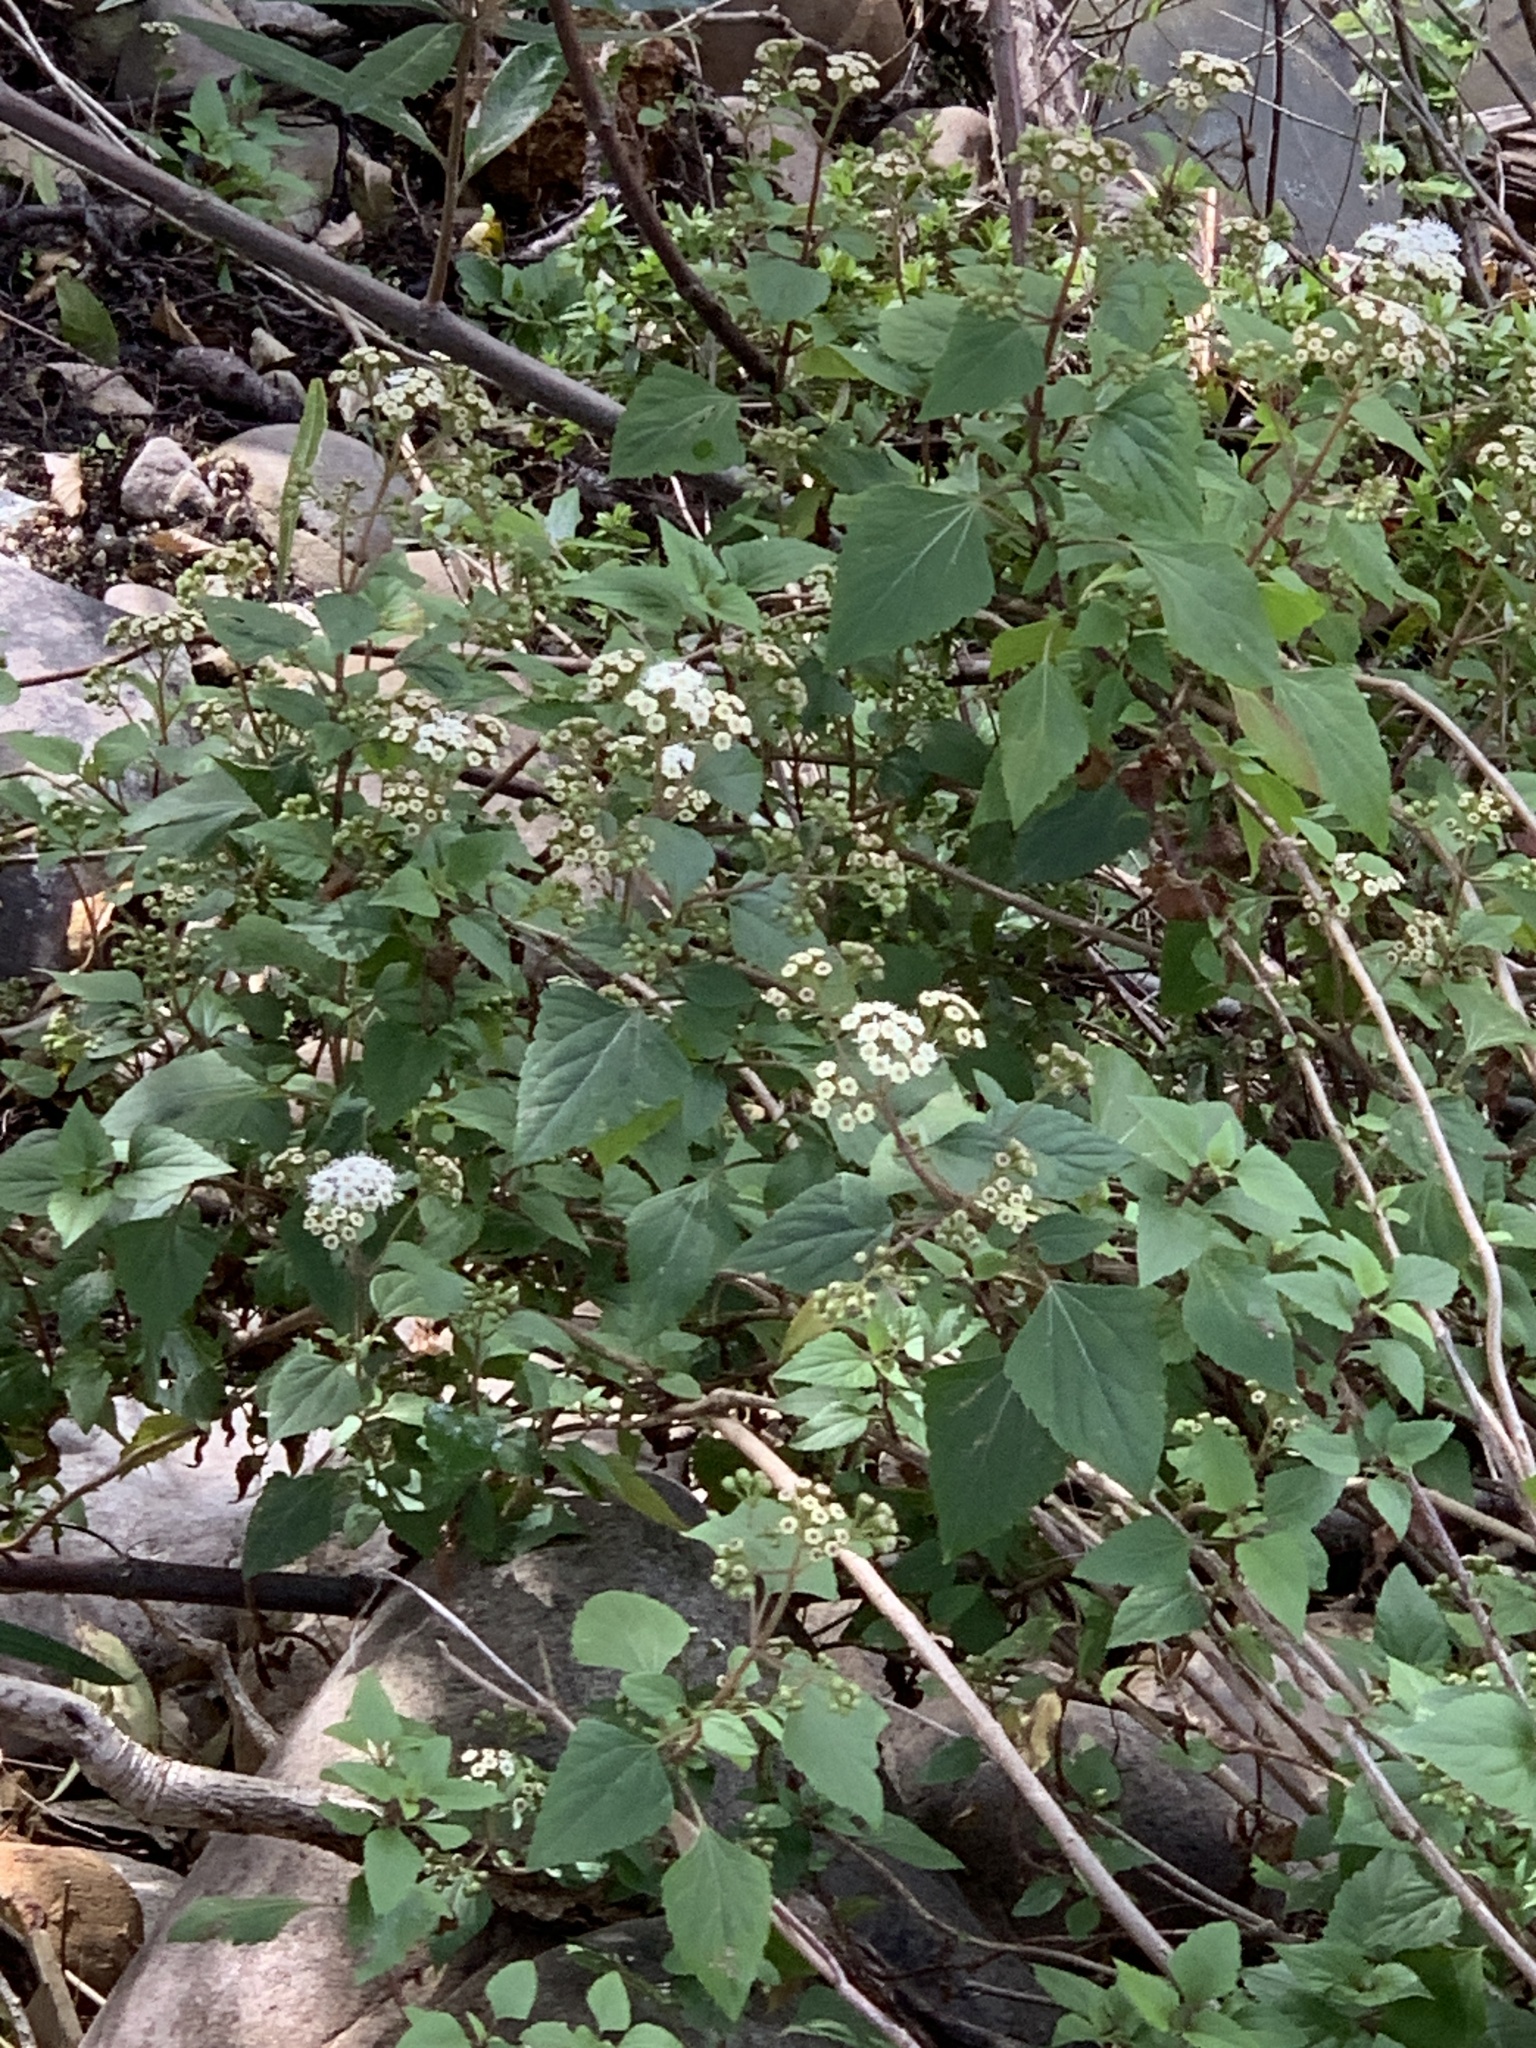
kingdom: Plantae
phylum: Tracheophyta
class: Magnoliopsida
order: Asterales
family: Asteraceae
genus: Ageratina
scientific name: Ageratina adenophora
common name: Sticky snakeroot
